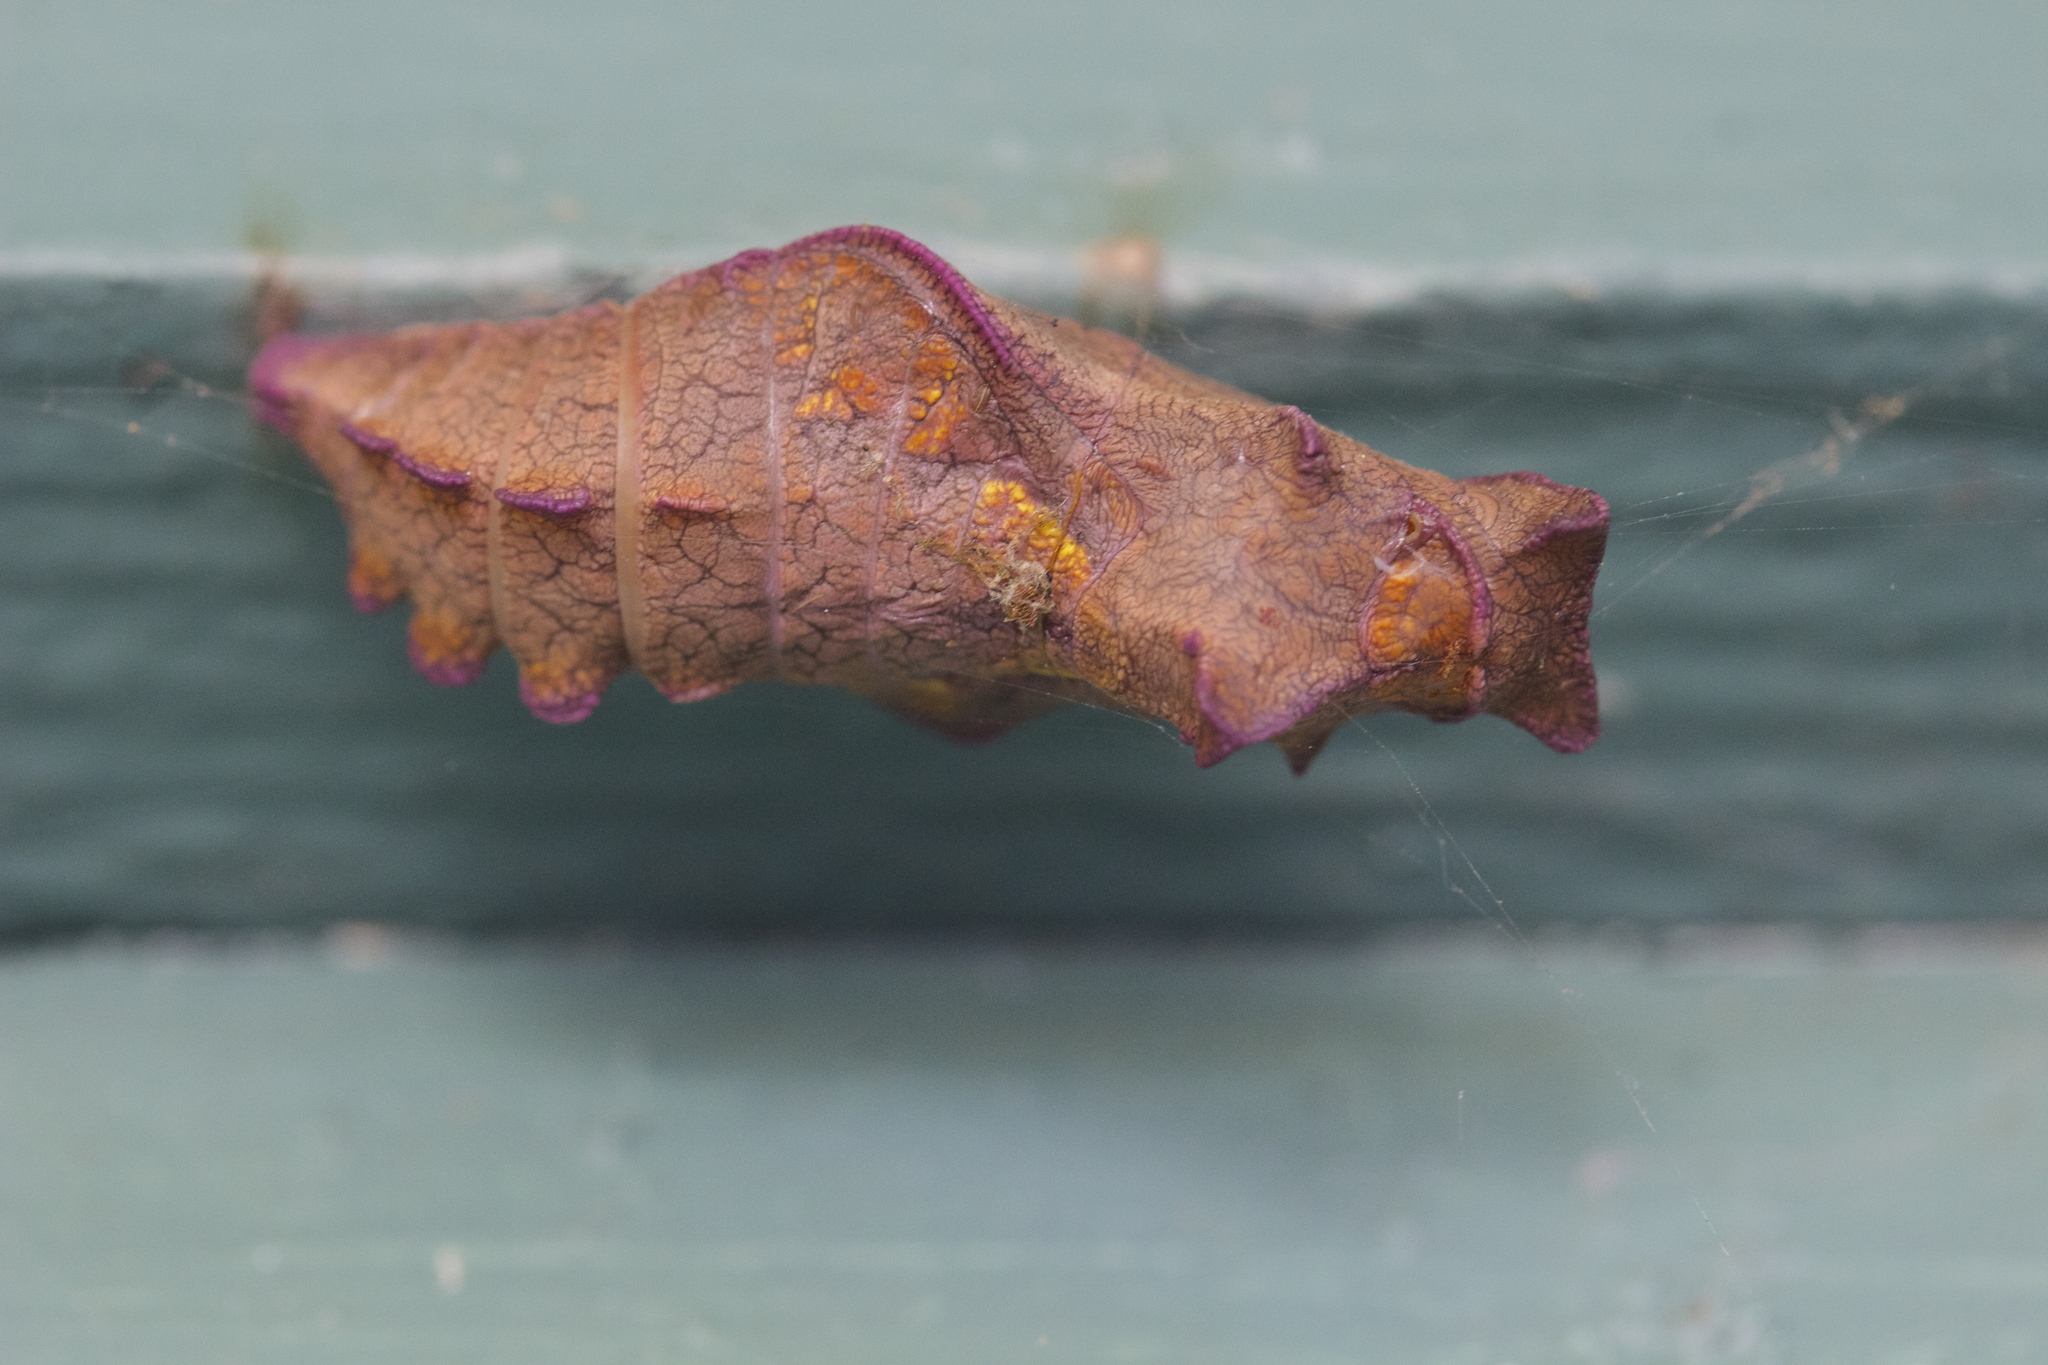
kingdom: Animalia
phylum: Arthropoda
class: Insecta
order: Lepidoptera
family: Papilionidae
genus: Battus
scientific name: Battus philenor
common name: Pipevine swallowtail
